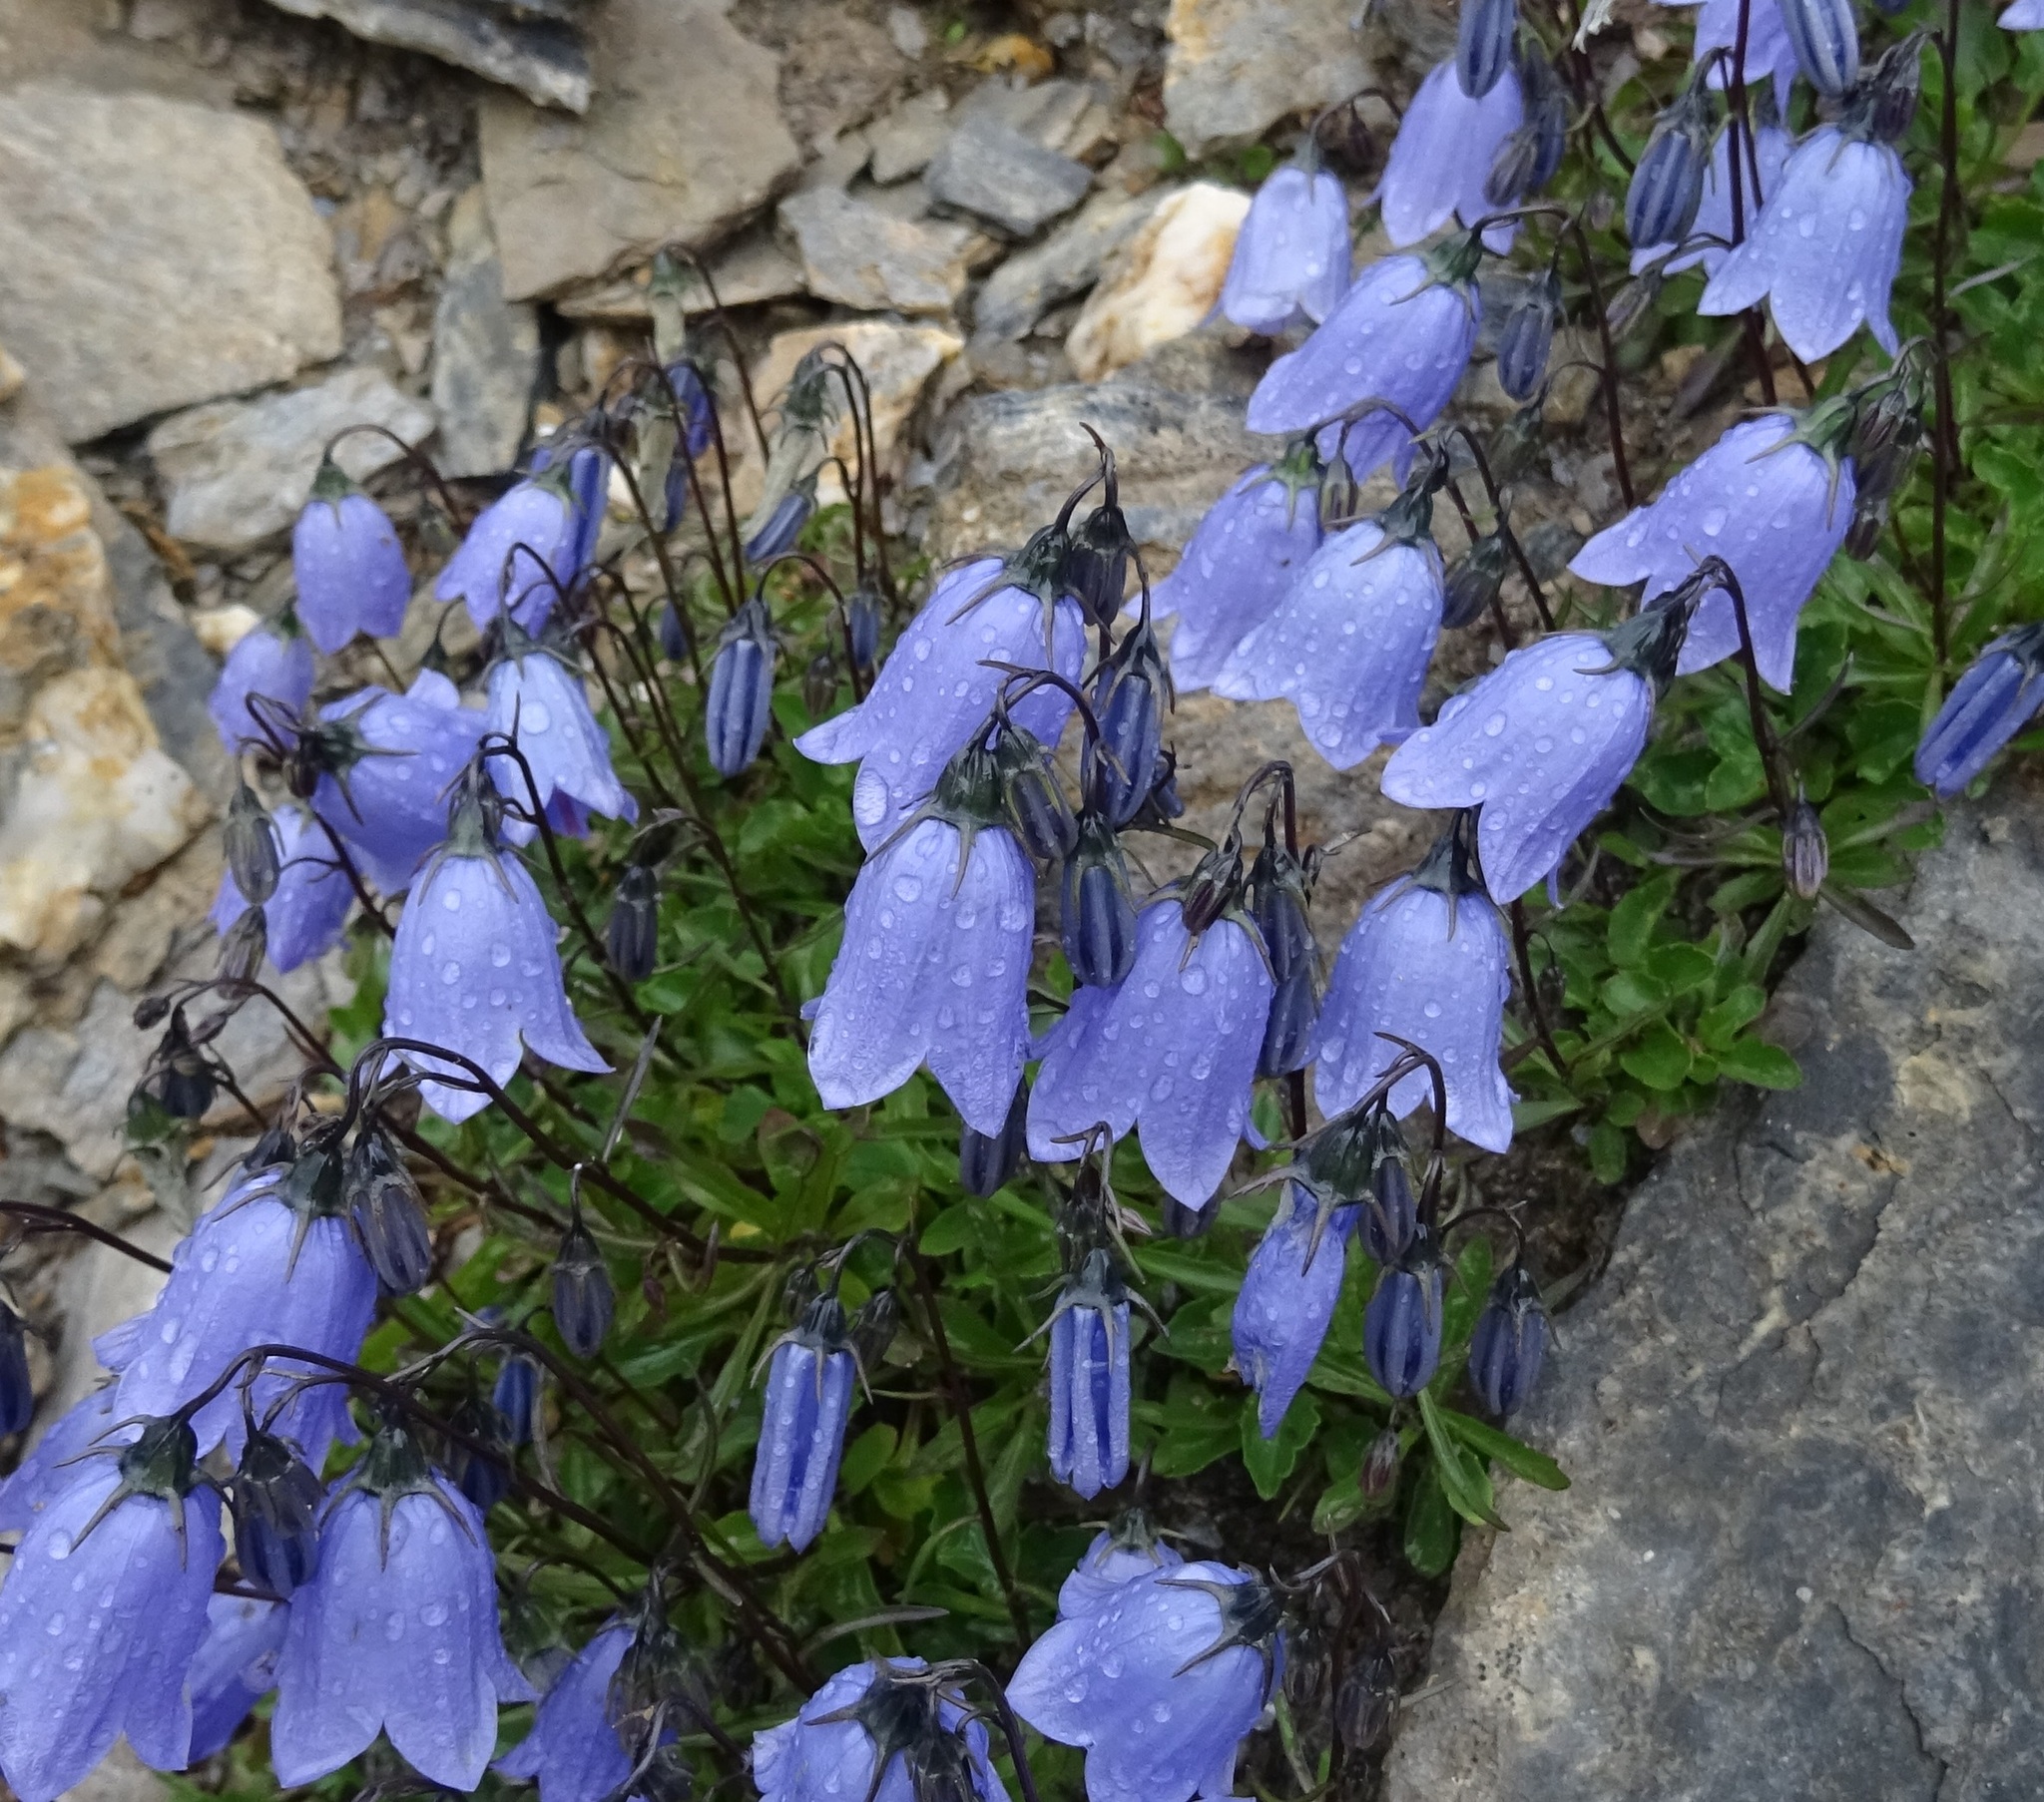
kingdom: Plantae
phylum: Tracheophyta
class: Magnoliopsida
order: Asterales
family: Campanulaceae
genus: Campanula
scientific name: Campanula cochleariifolia
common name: Fairies'-thimbles
